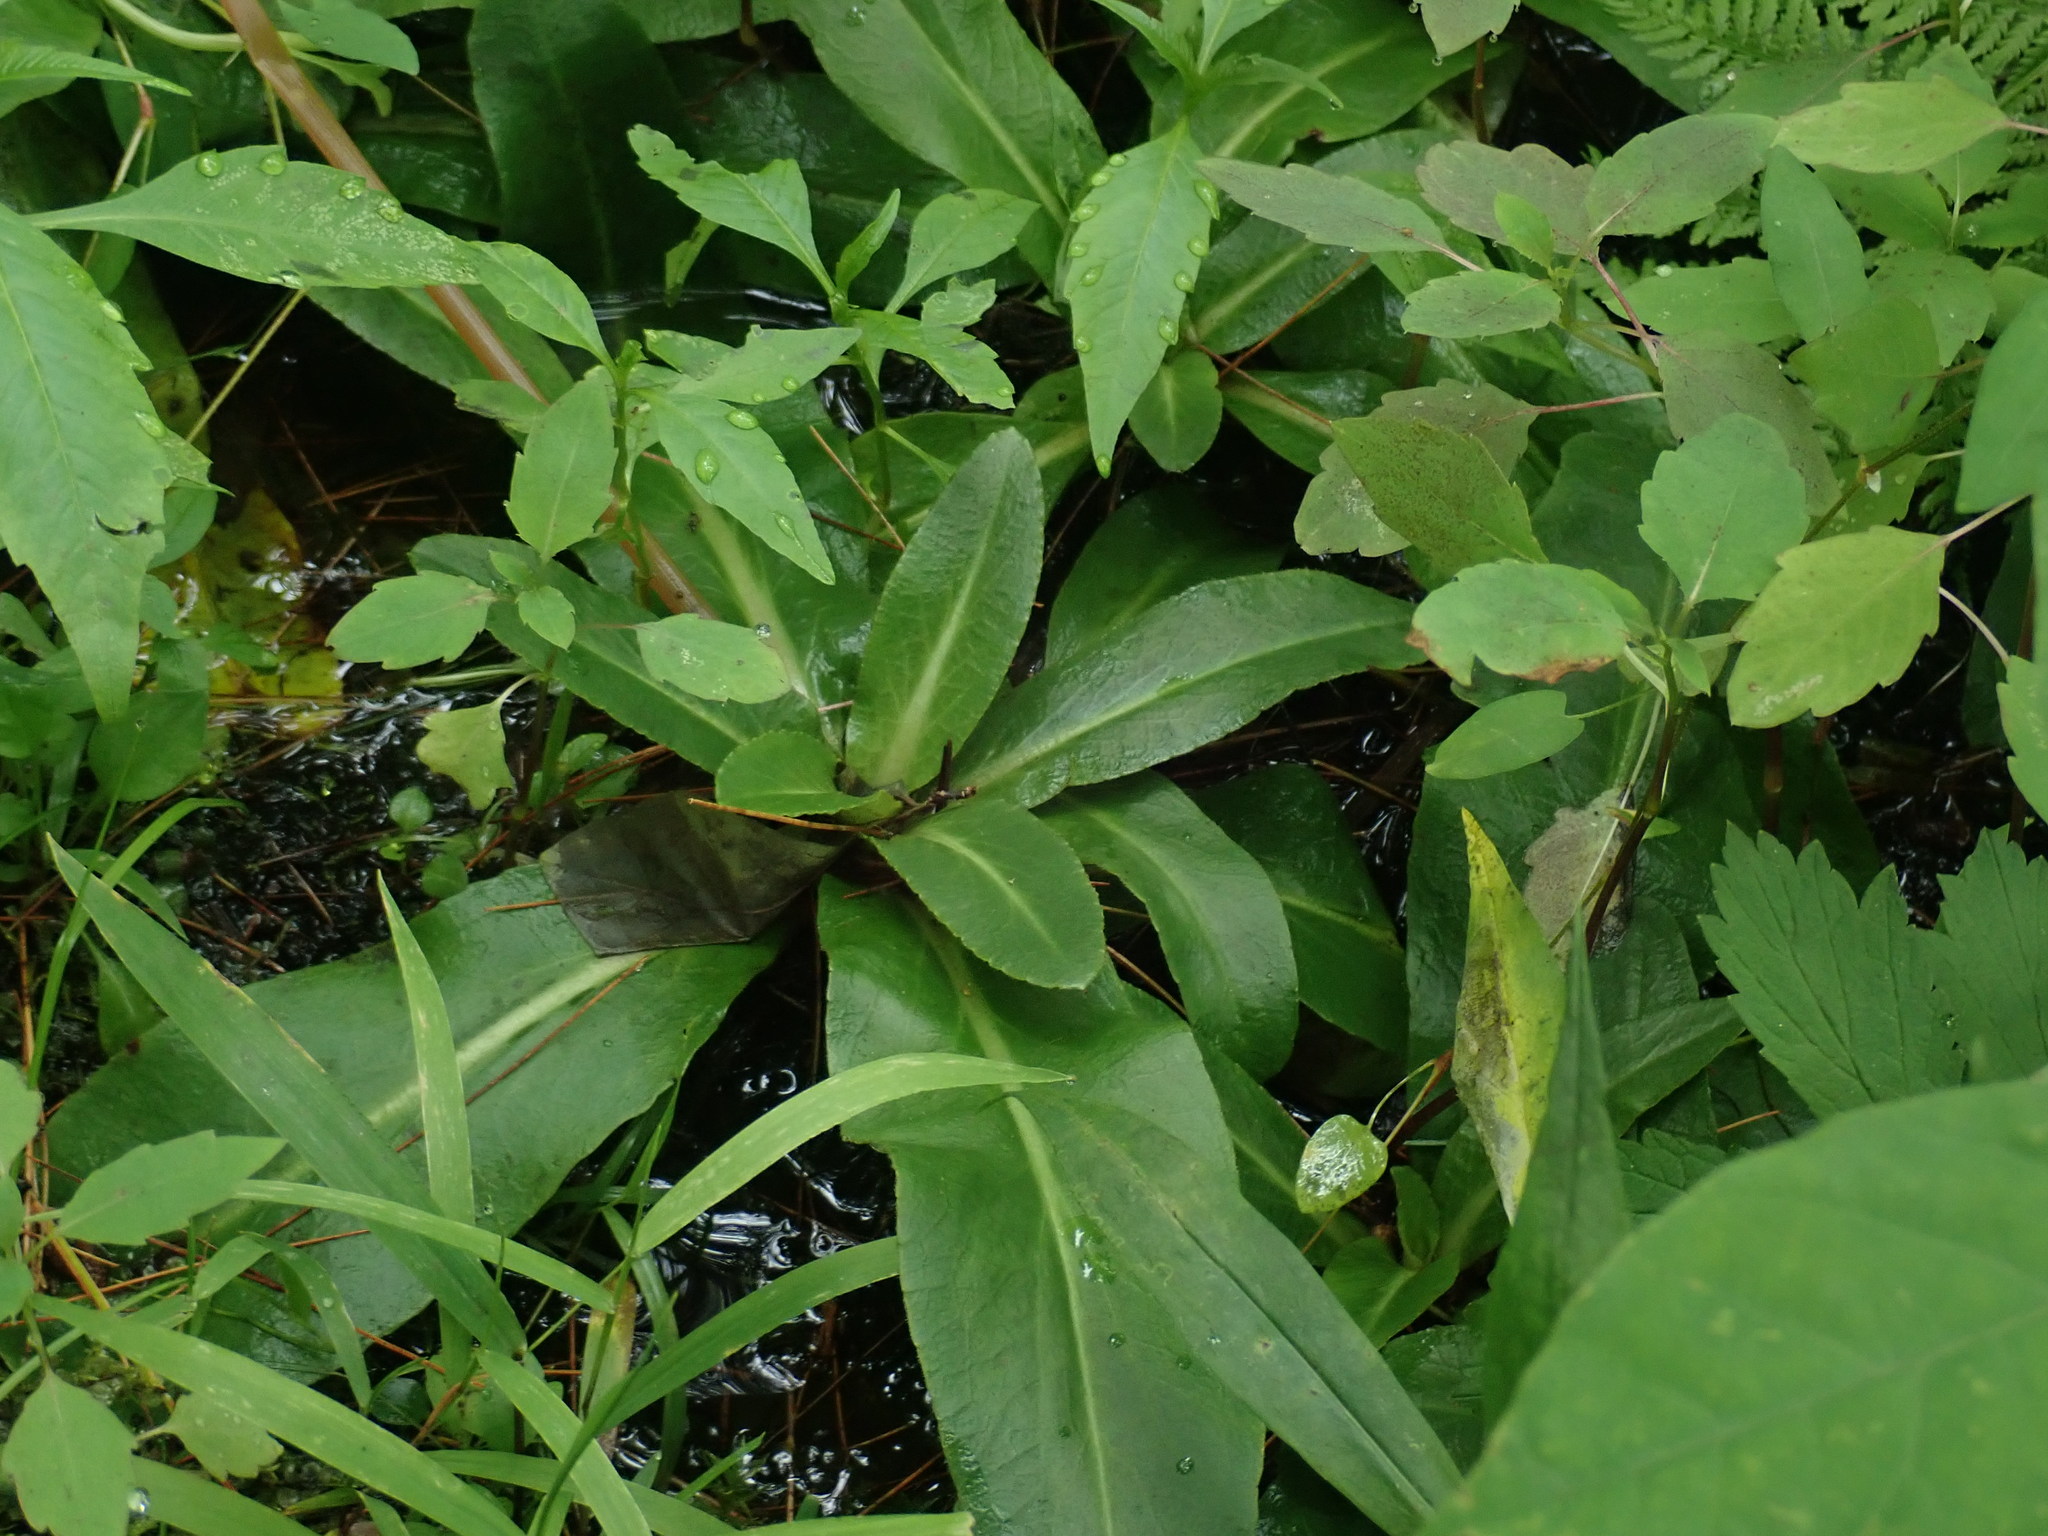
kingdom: Plantae
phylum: Tracheophyta
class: Magnoliopsida
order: Saxifragales
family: Saxifragaceae
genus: Micranthes
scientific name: Micranthes pensylvanica
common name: Marsh saxifrage
